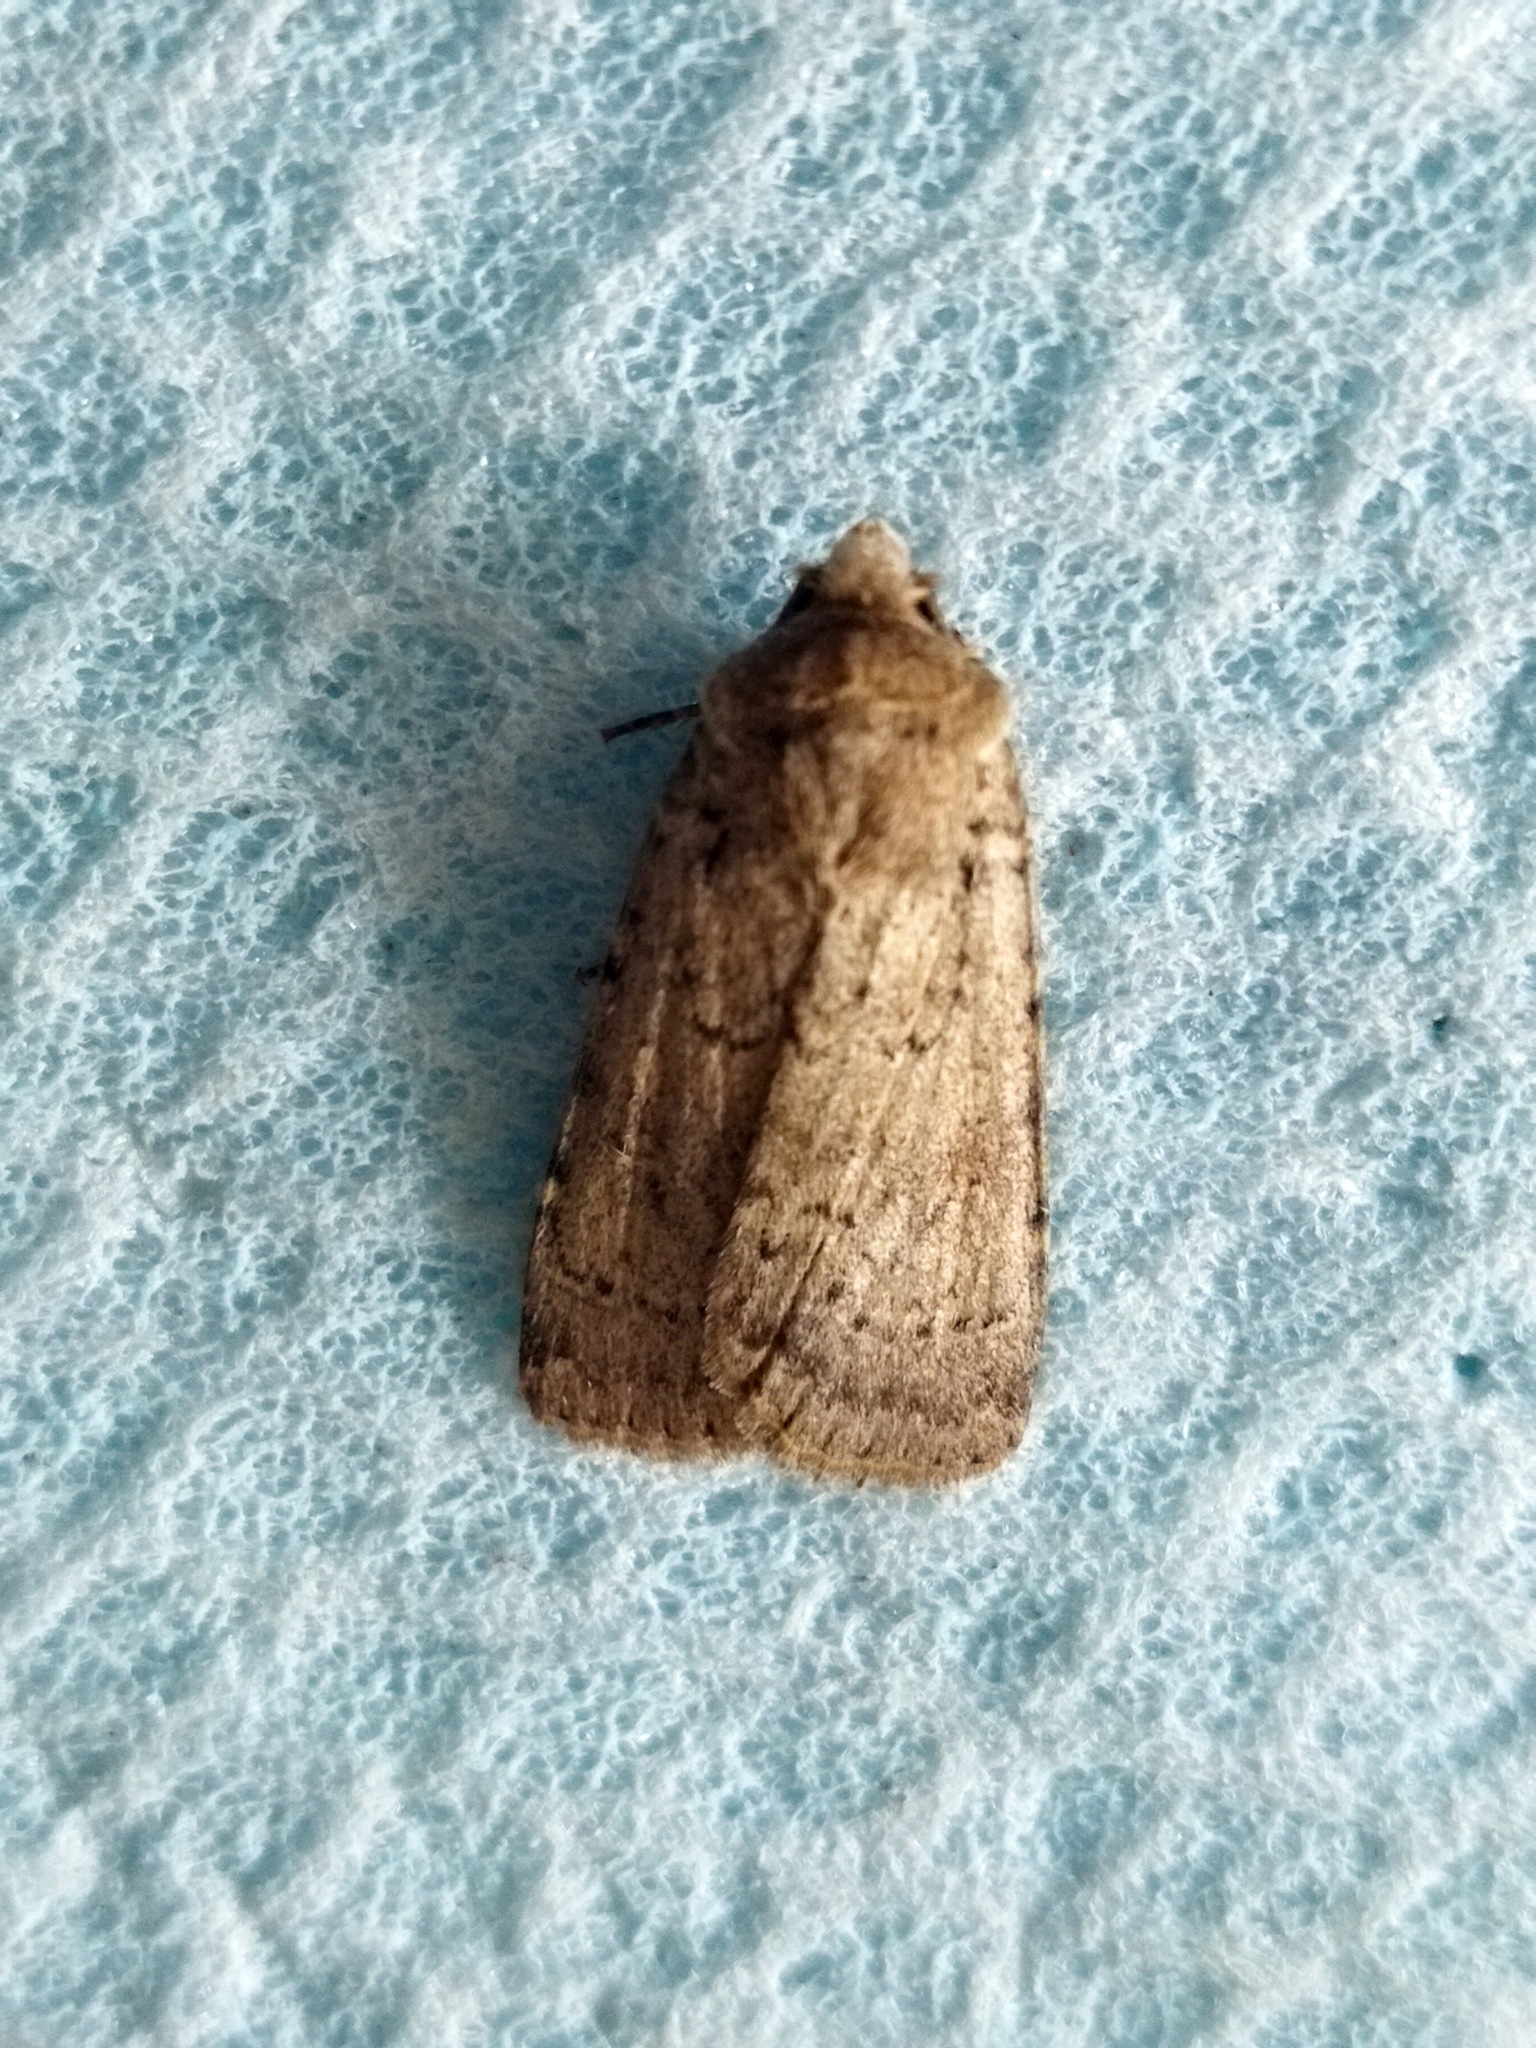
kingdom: Animalia
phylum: Arthropoda
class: Insecta
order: Lepidoptera
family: Noctuidae
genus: Rhyacia
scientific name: Rhyacia simulans
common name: Dotted rustic
